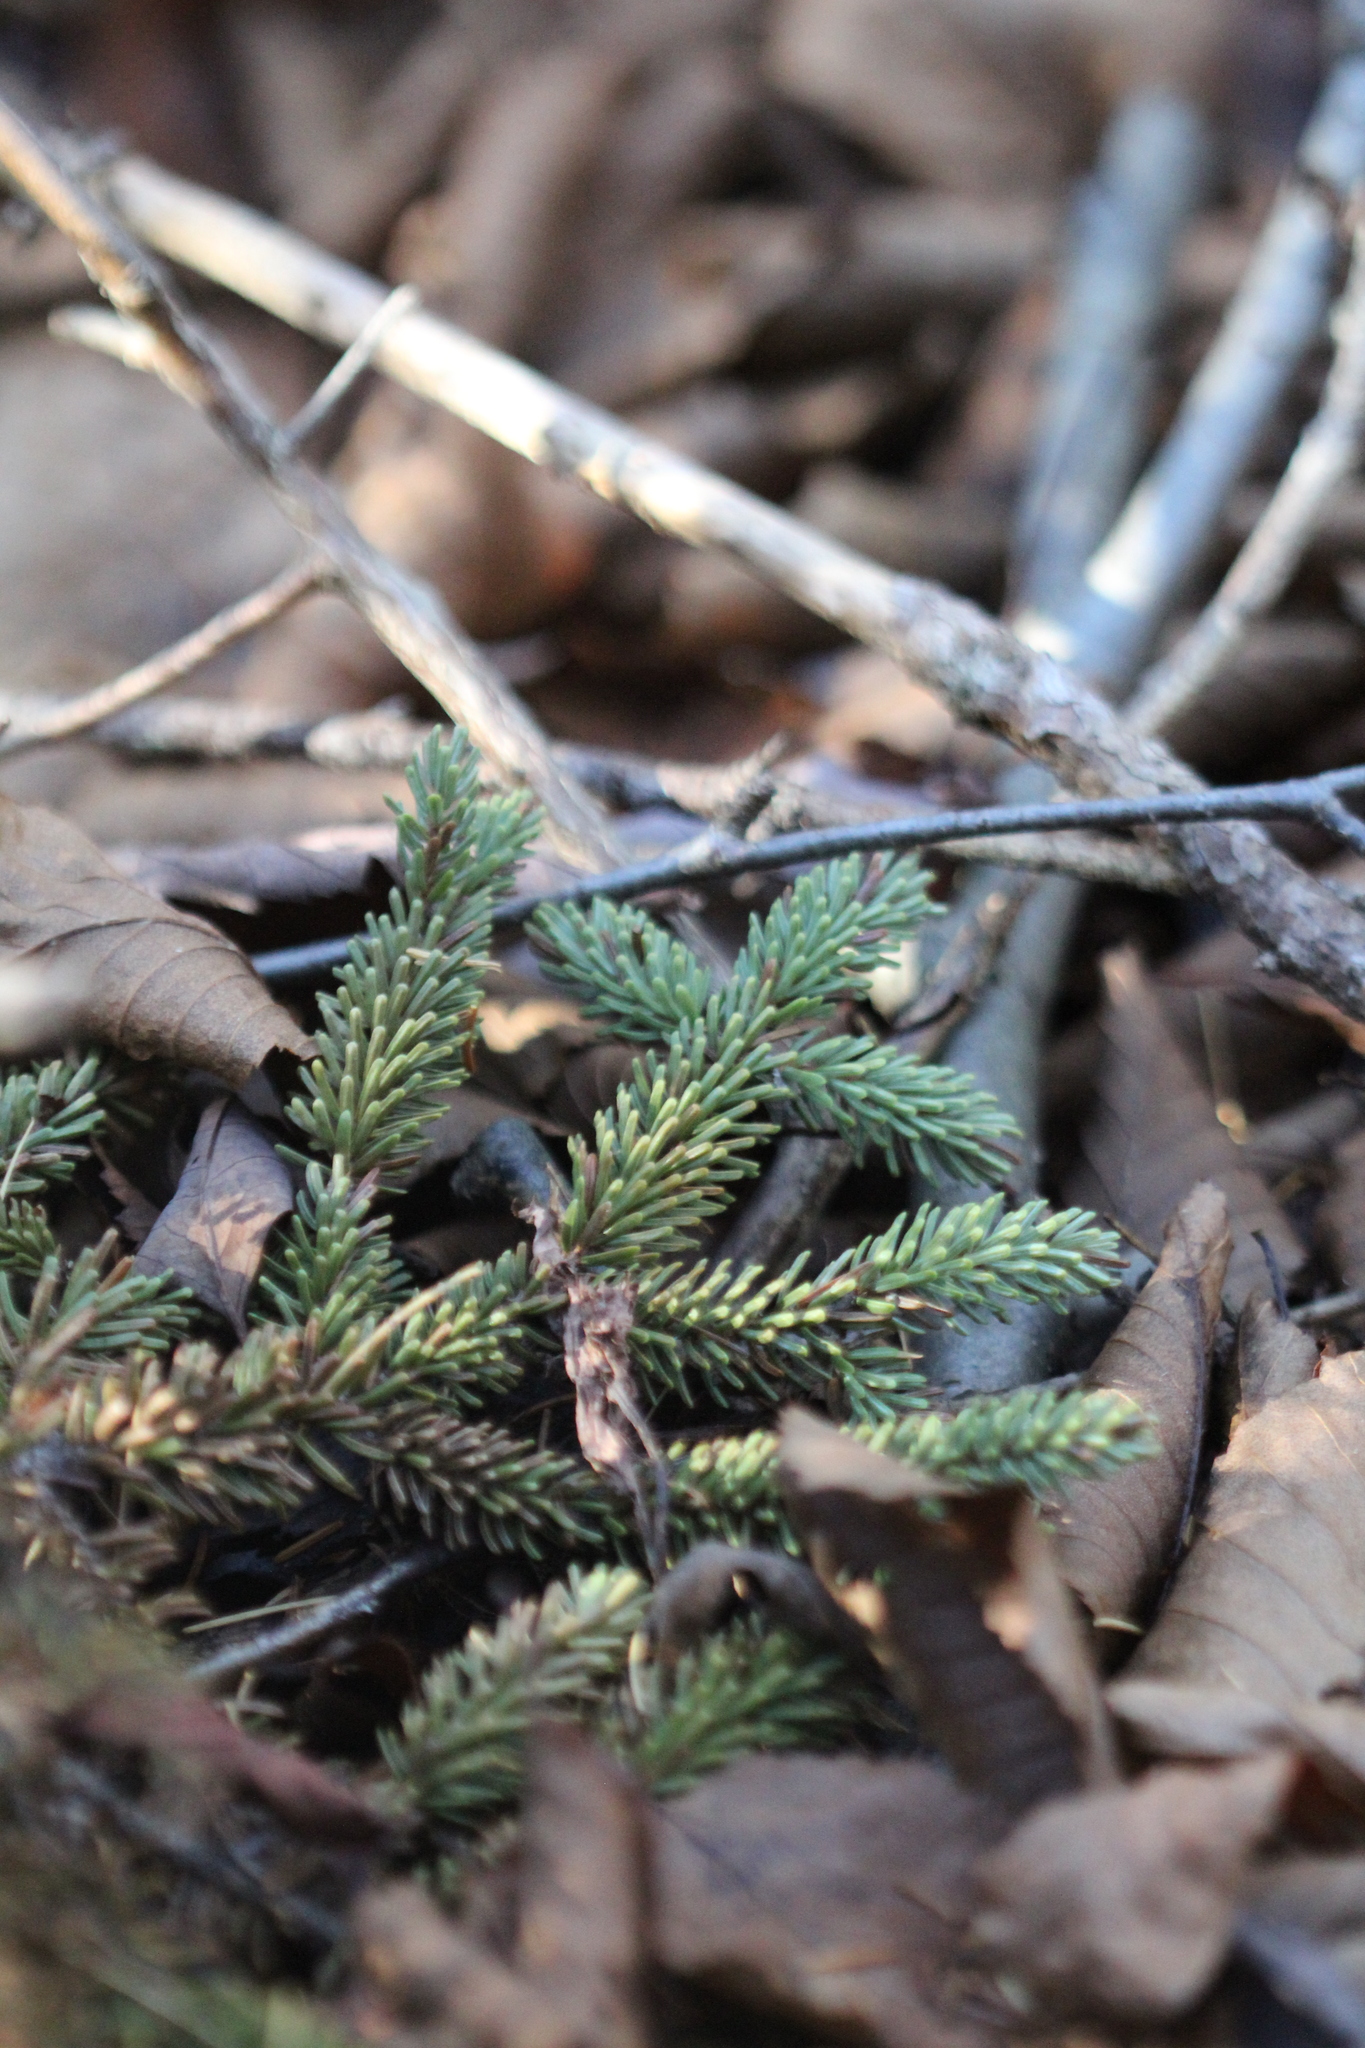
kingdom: Plantae
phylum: Tracheophyta
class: Pinopsida
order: Pinales
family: Pinaceae
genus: Picea
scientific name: Picea mariana
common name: Black spruce
